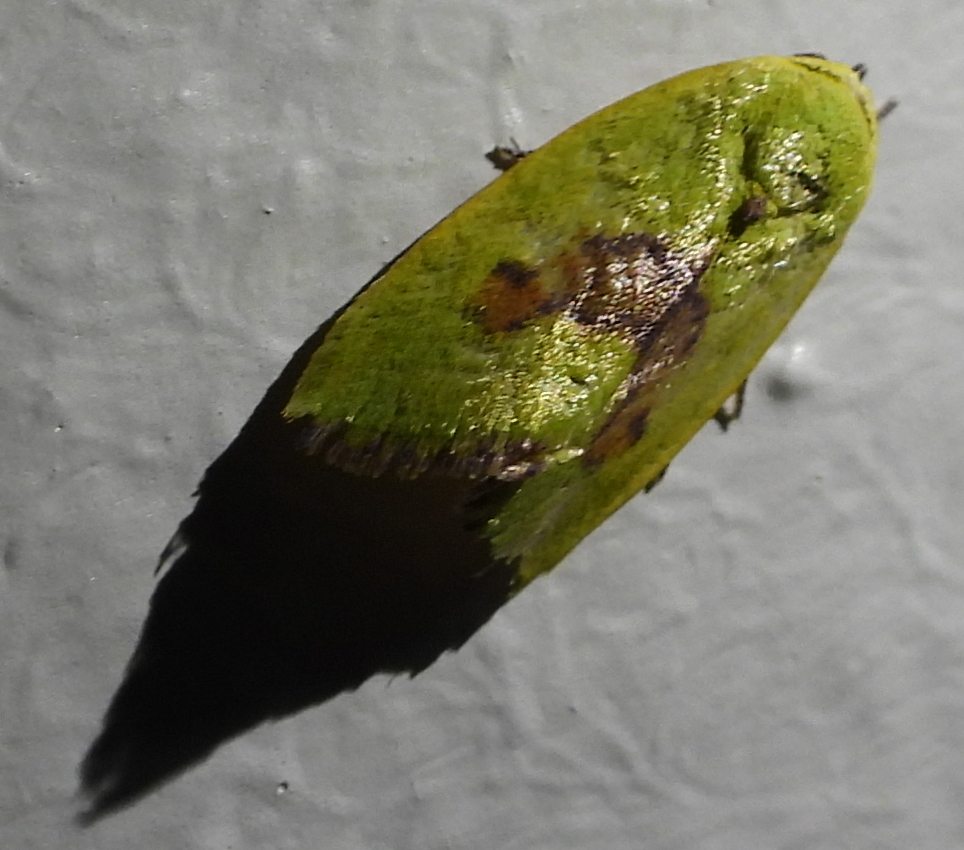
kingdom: Animalia
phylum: Arthropoda
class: Insecta
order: Lepidoptera
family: Nolidae
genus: Earias
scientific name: Earias biplaga
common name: Spiny bollworm
